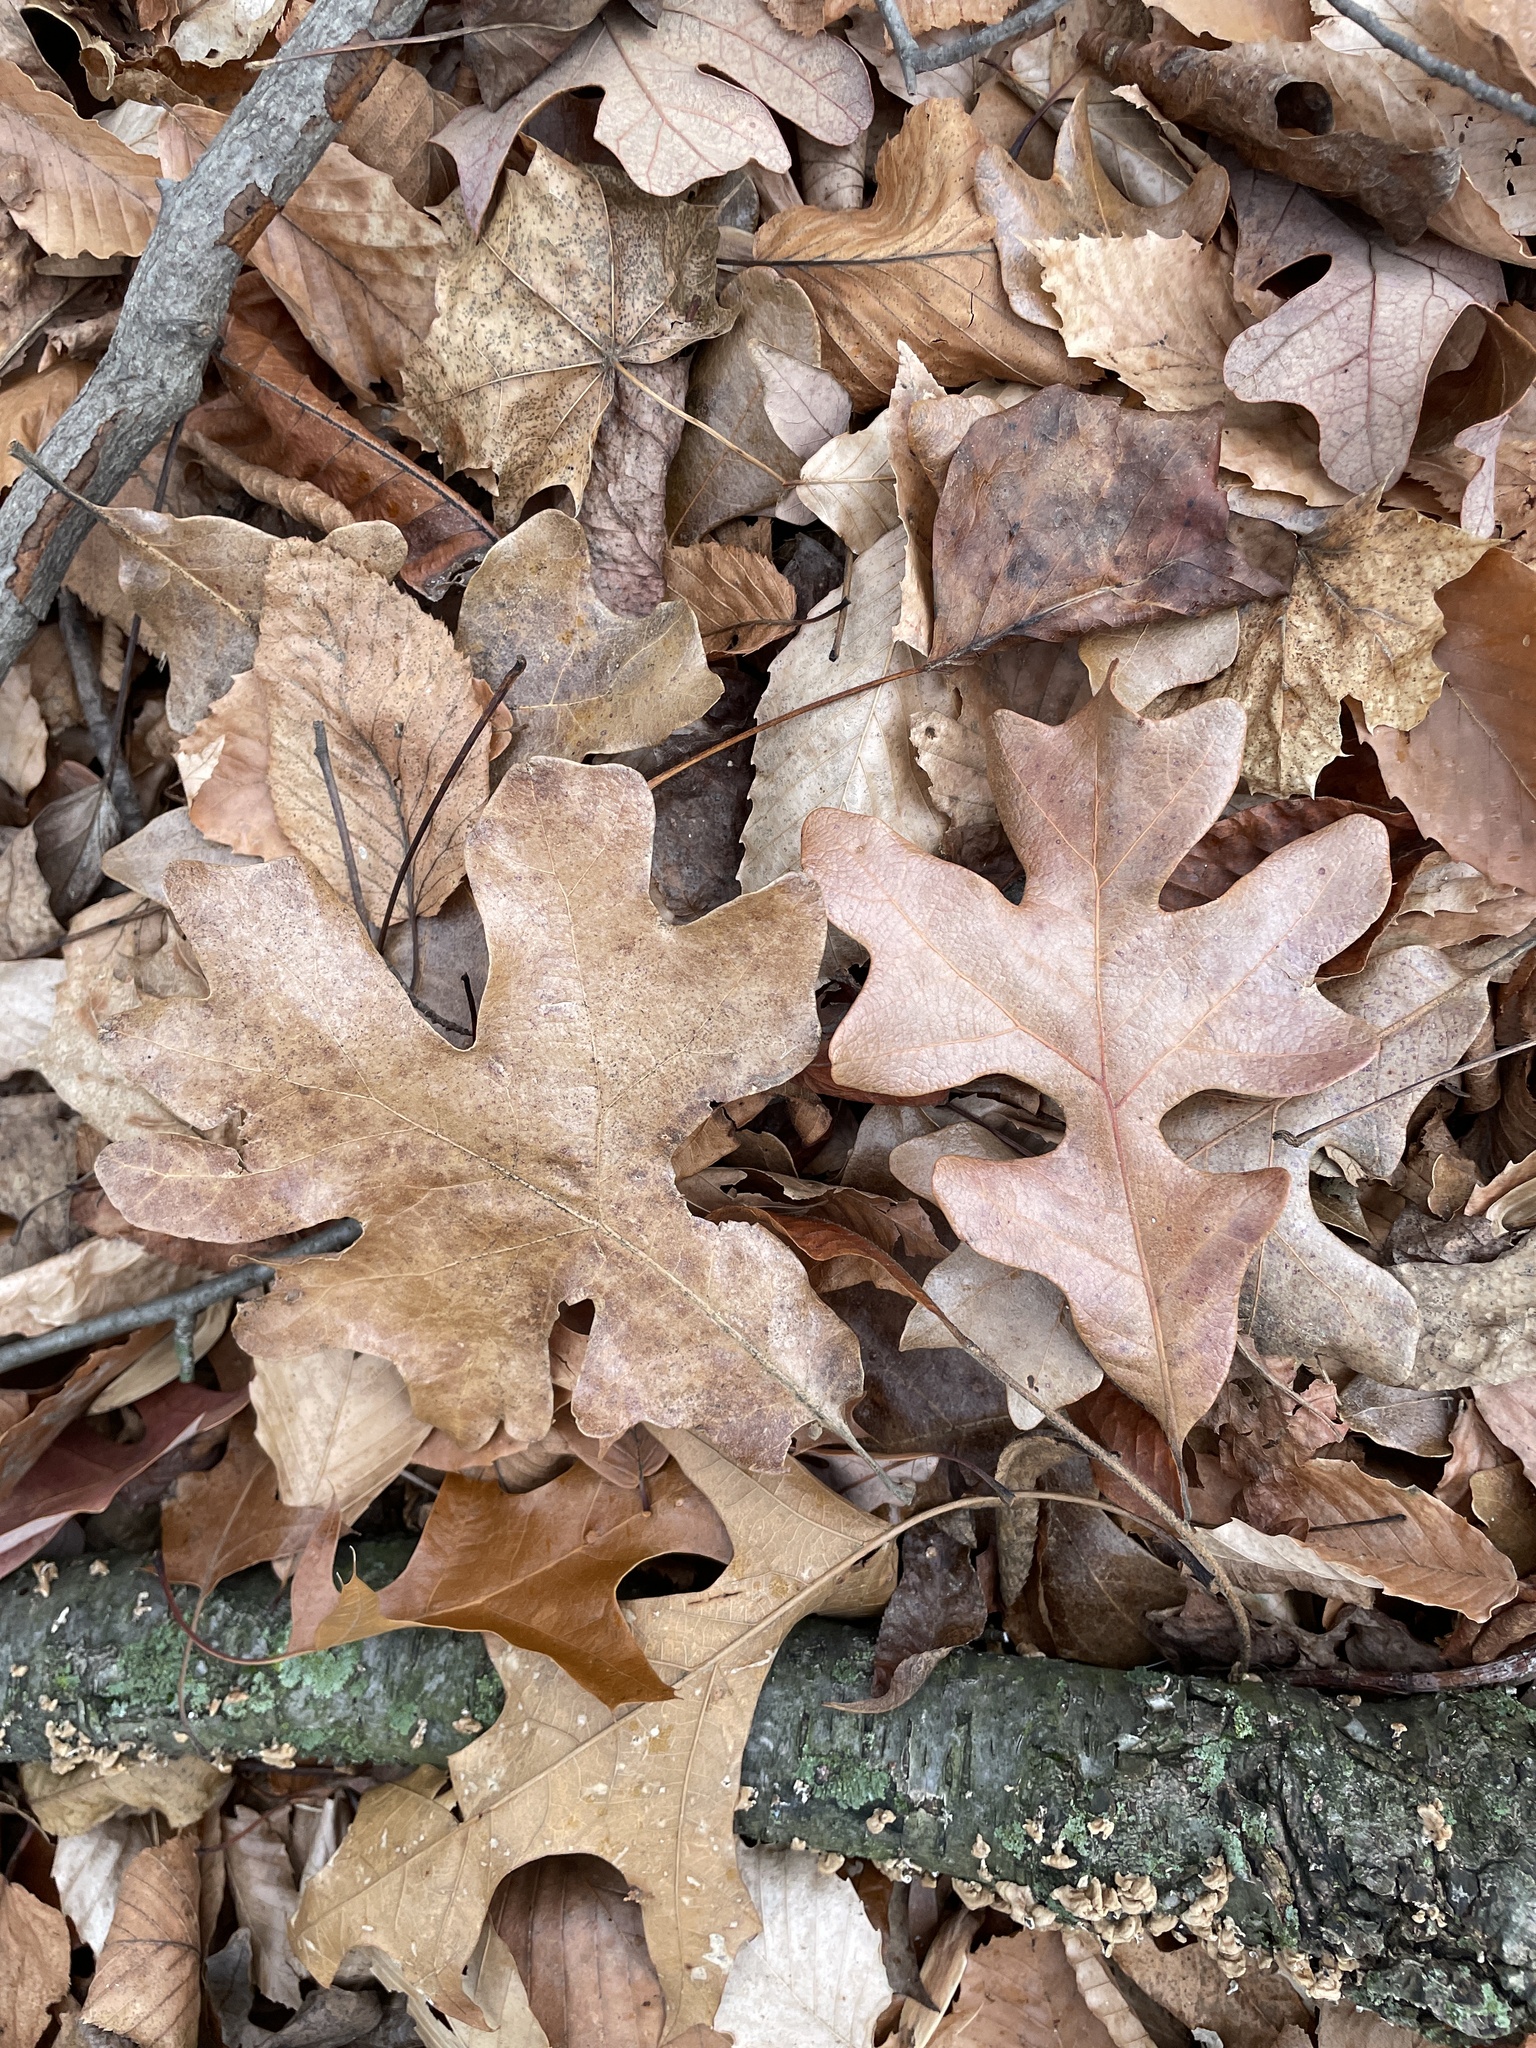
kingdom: Plantae
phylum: Tracheophyta
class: Magnoliopsida
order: Fagales
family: Fagaceae
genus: Quercus
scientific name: Quercus stellata
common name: Post oak
